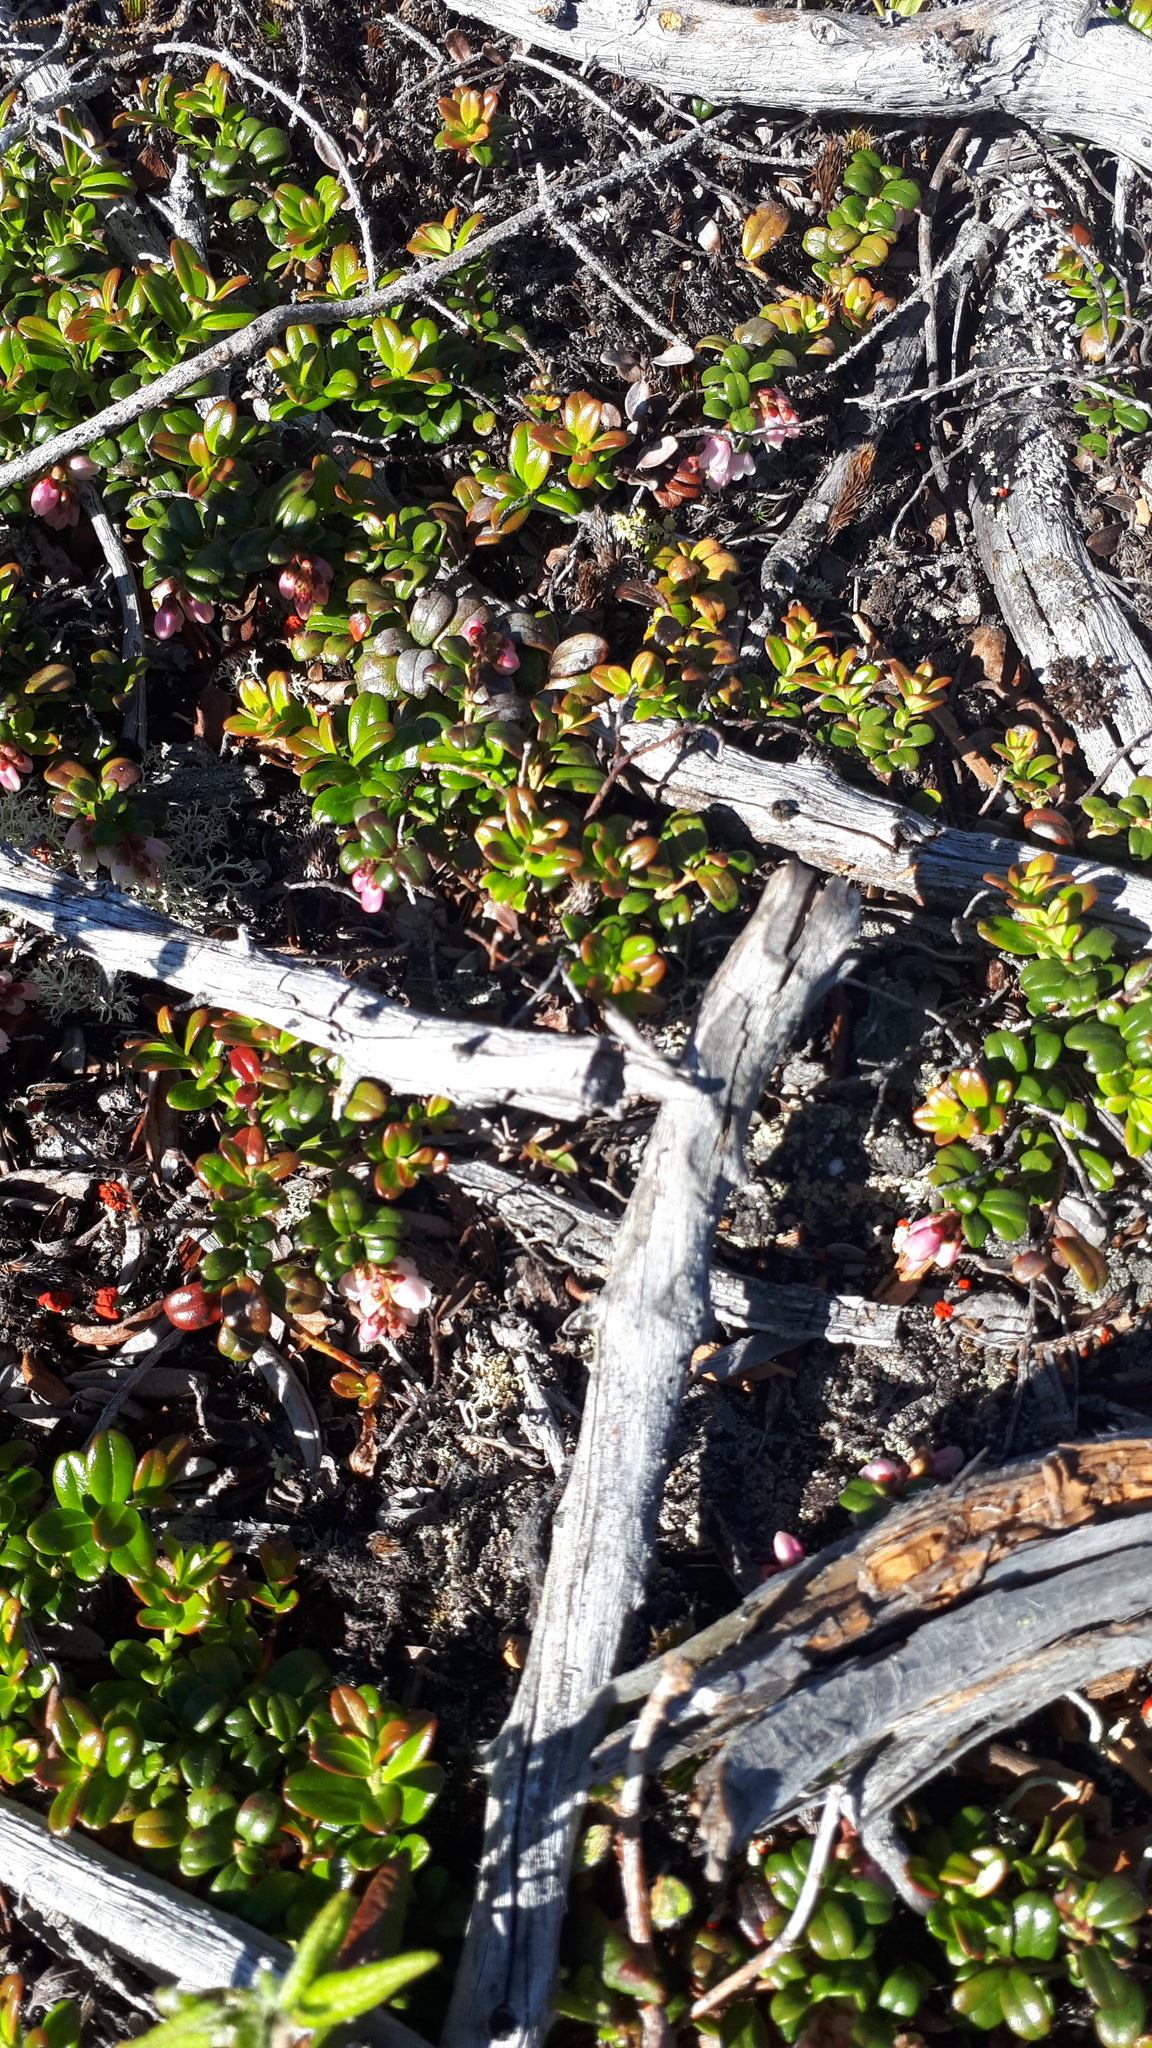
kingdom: Plantae
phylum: Tracheophyta
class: Magnoliopsida
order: Ericales
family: Ericaceae
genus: Vaccinium
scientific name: Vaccinium vitis-idaea
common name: Cowberry
